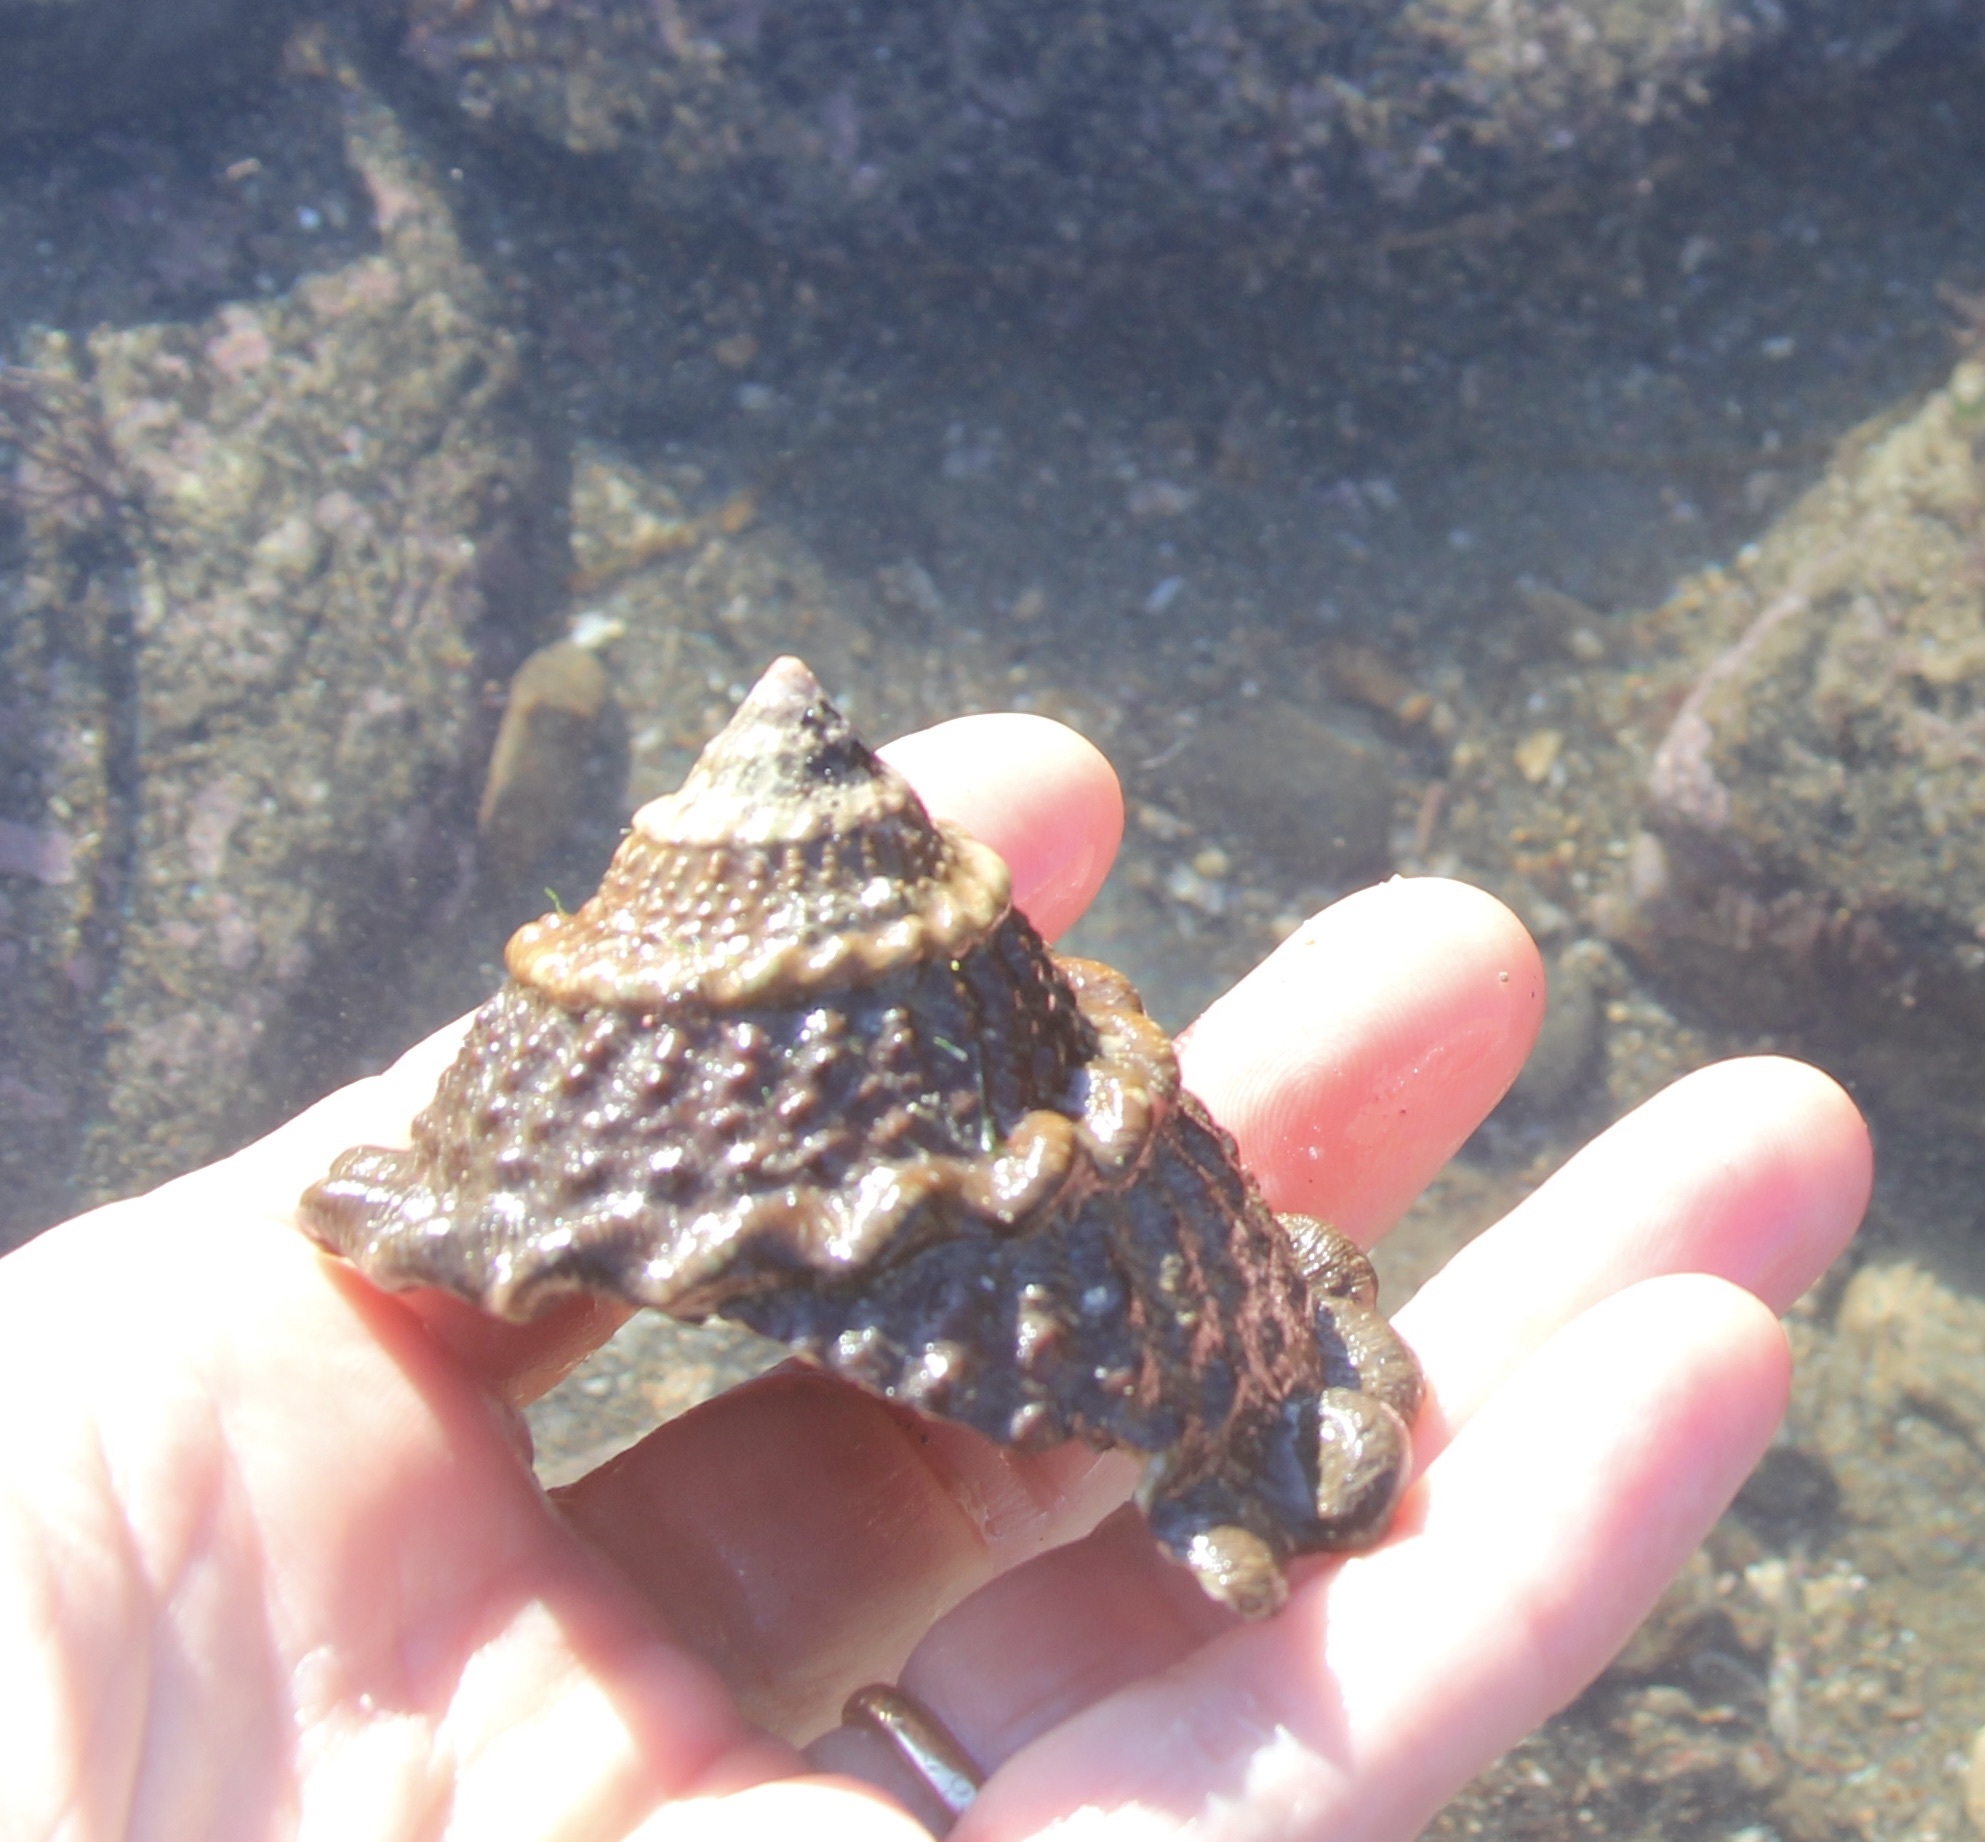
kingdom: Animalia
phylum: Mollusca
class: Gastropoda
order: Trochida
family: Turbinidae
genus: Megastraea
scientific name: Megastraea undosa
